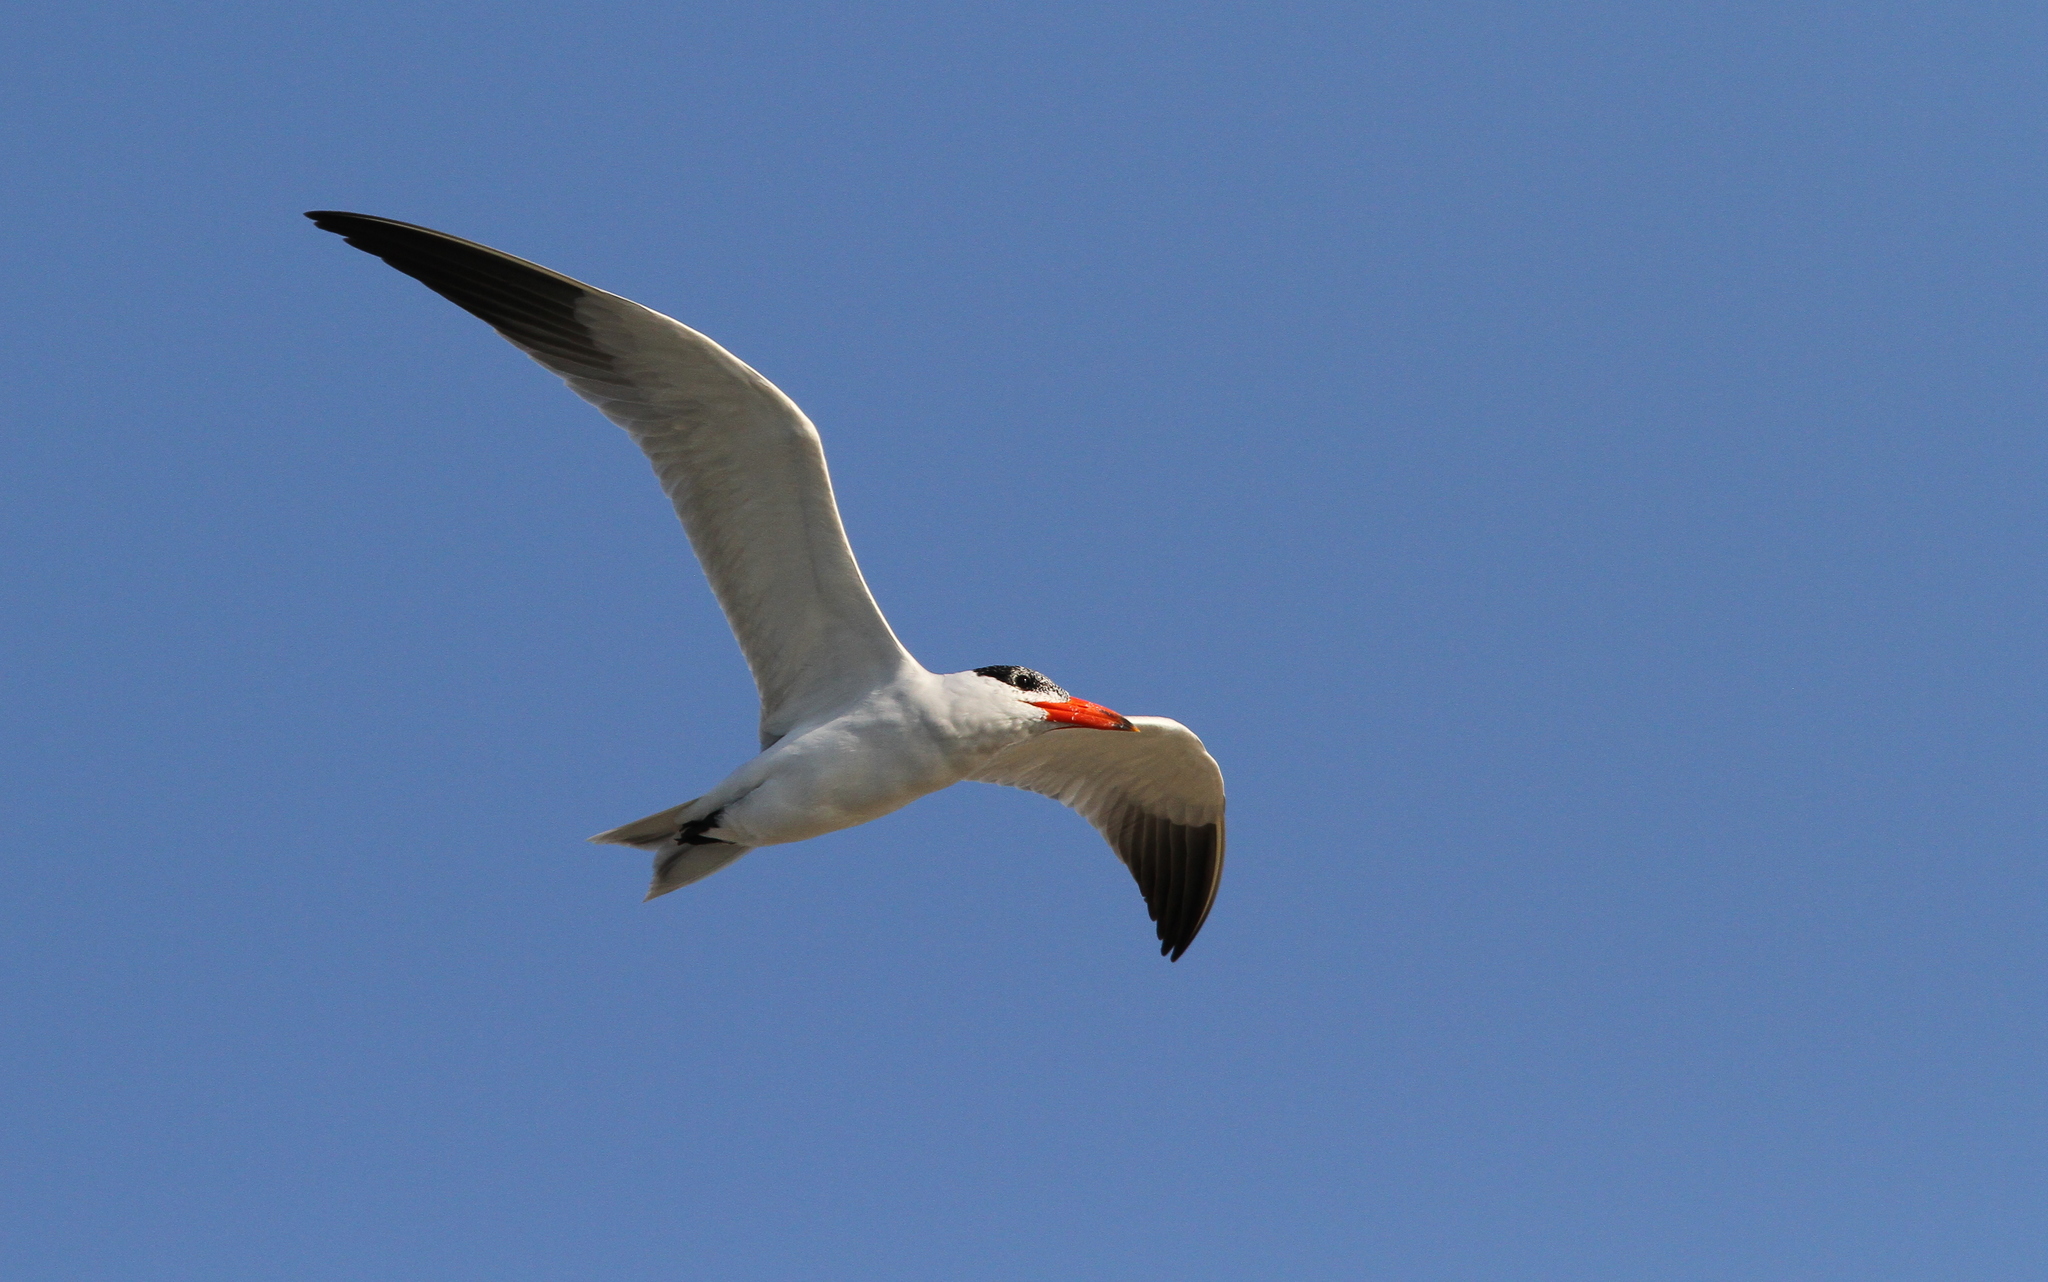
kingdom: Animalia
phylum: Chordata
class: Aves
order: Charadriiformes
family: Laridae
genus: Hydroprogne
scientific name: Hydroprogne caspia
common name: Caspian tern
